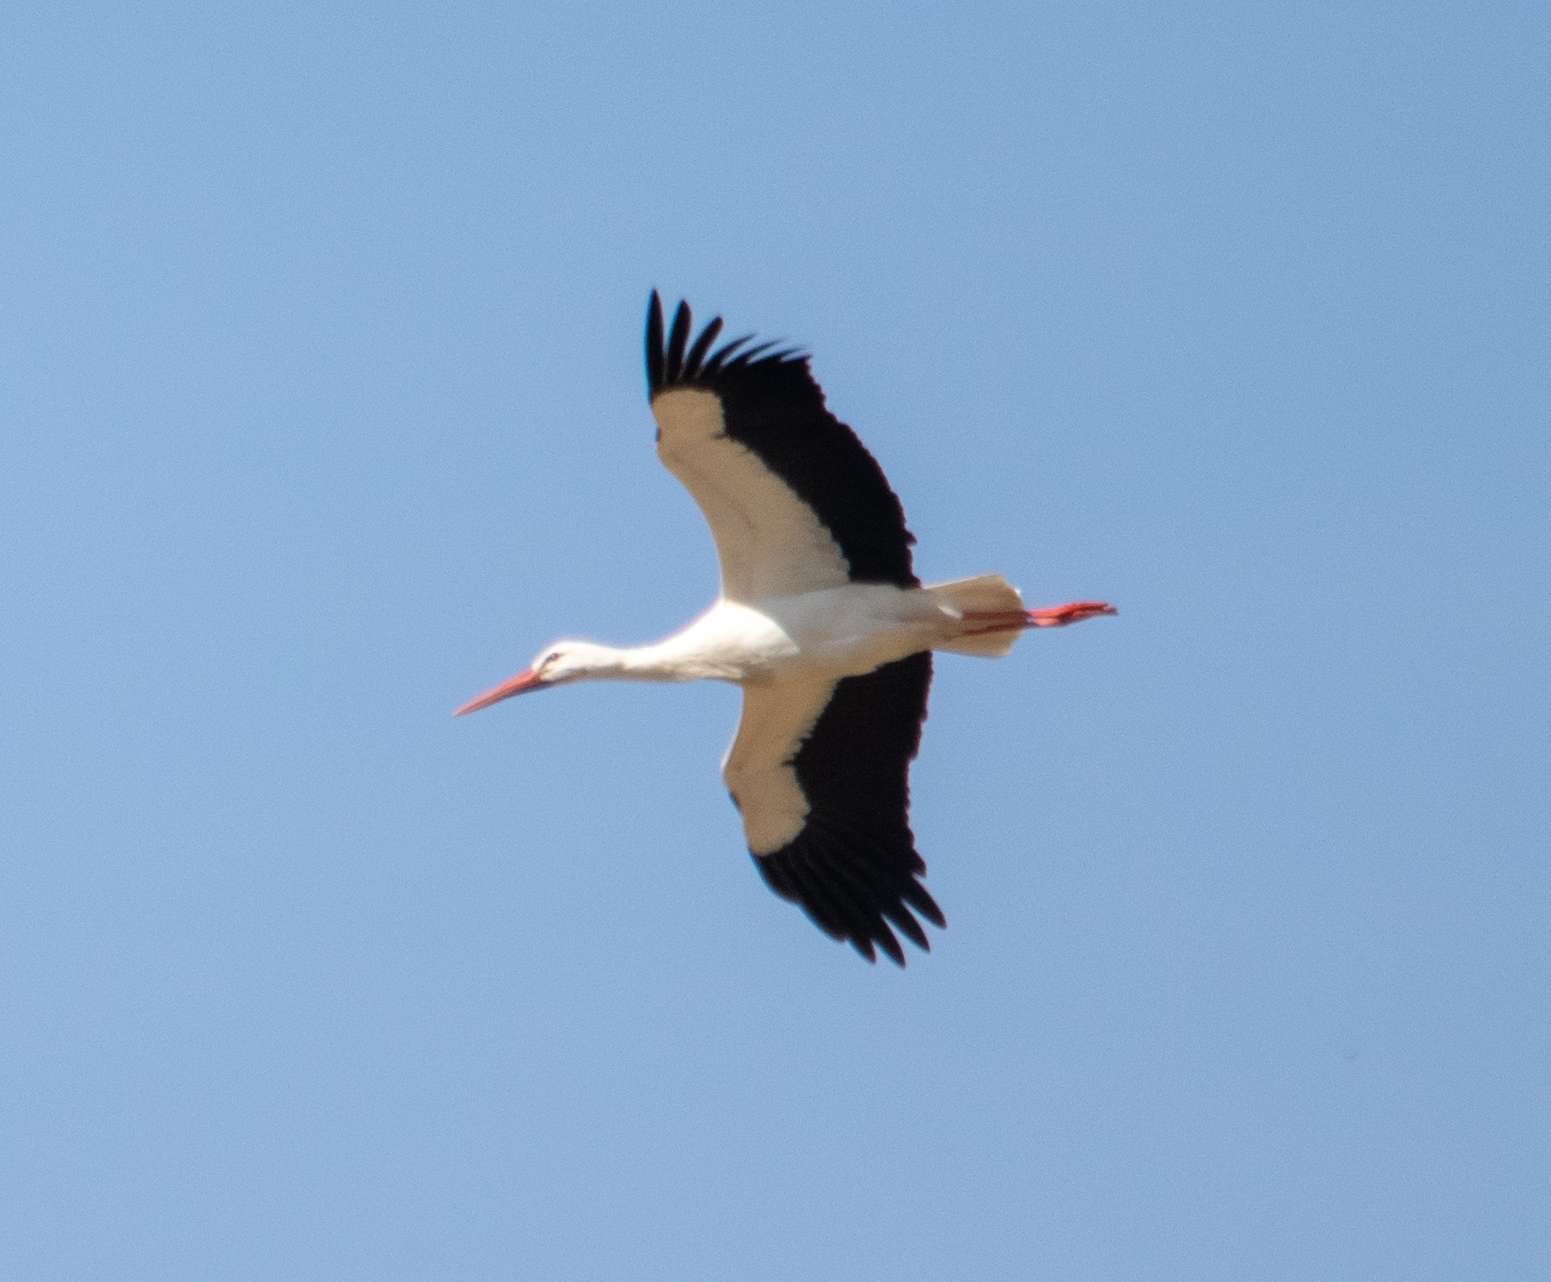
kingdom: Animalia
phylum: Chordata
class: Aves
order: Ciconiiformes
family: Ciconiidae
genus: Ciconia
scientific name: Ciconia ciconia
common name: White stork
